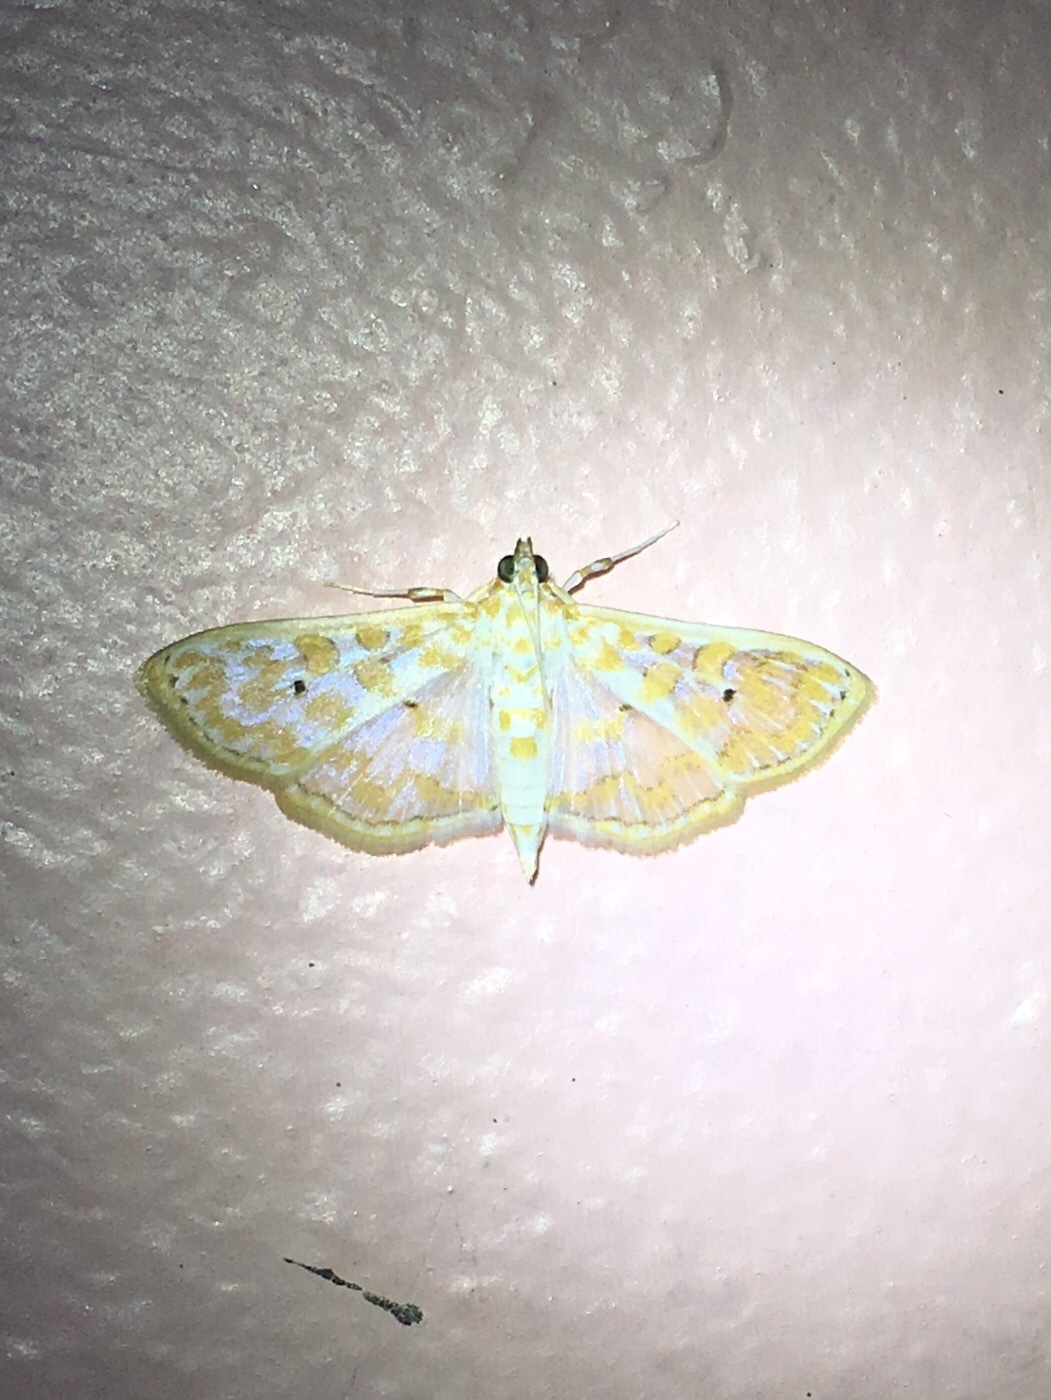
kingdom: Animalia
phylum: Arthropoda
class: Insecta
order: Lepidoptera
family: Crambidae
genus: Leucochroma
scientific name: Leucochroma corope
